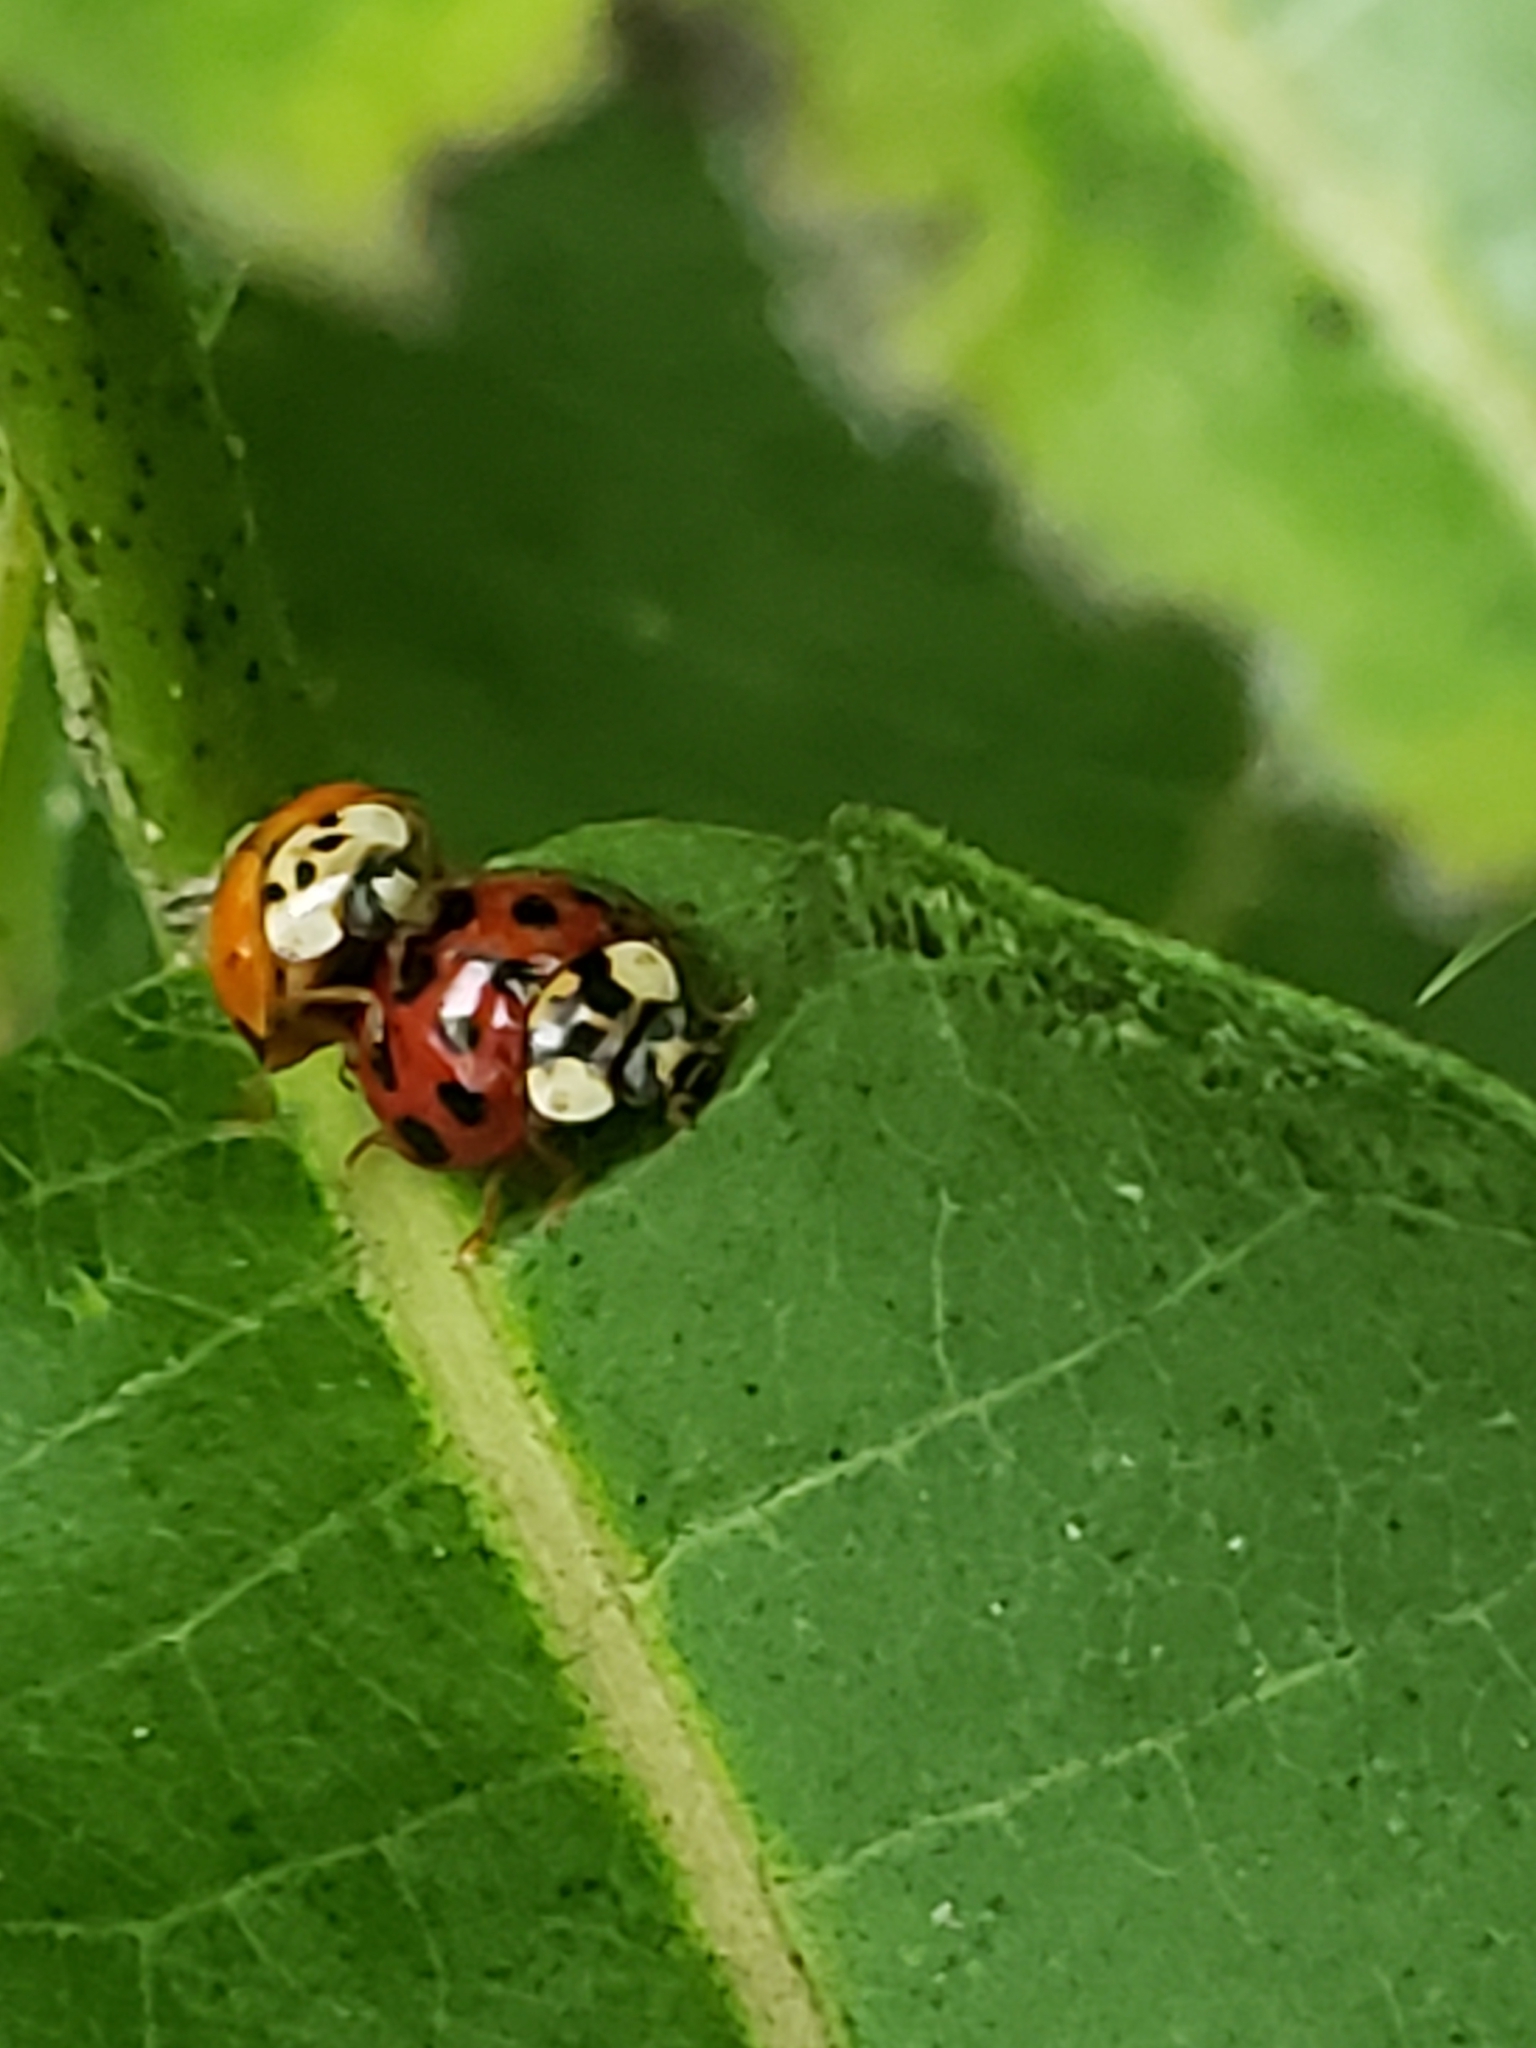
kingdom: Animalia
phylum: Arthropoda
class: Insecta
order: Coleoptera
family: Coccinellidae
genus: Harmonia
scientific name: Harmonia axyridis
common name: Harlequin ladybird
